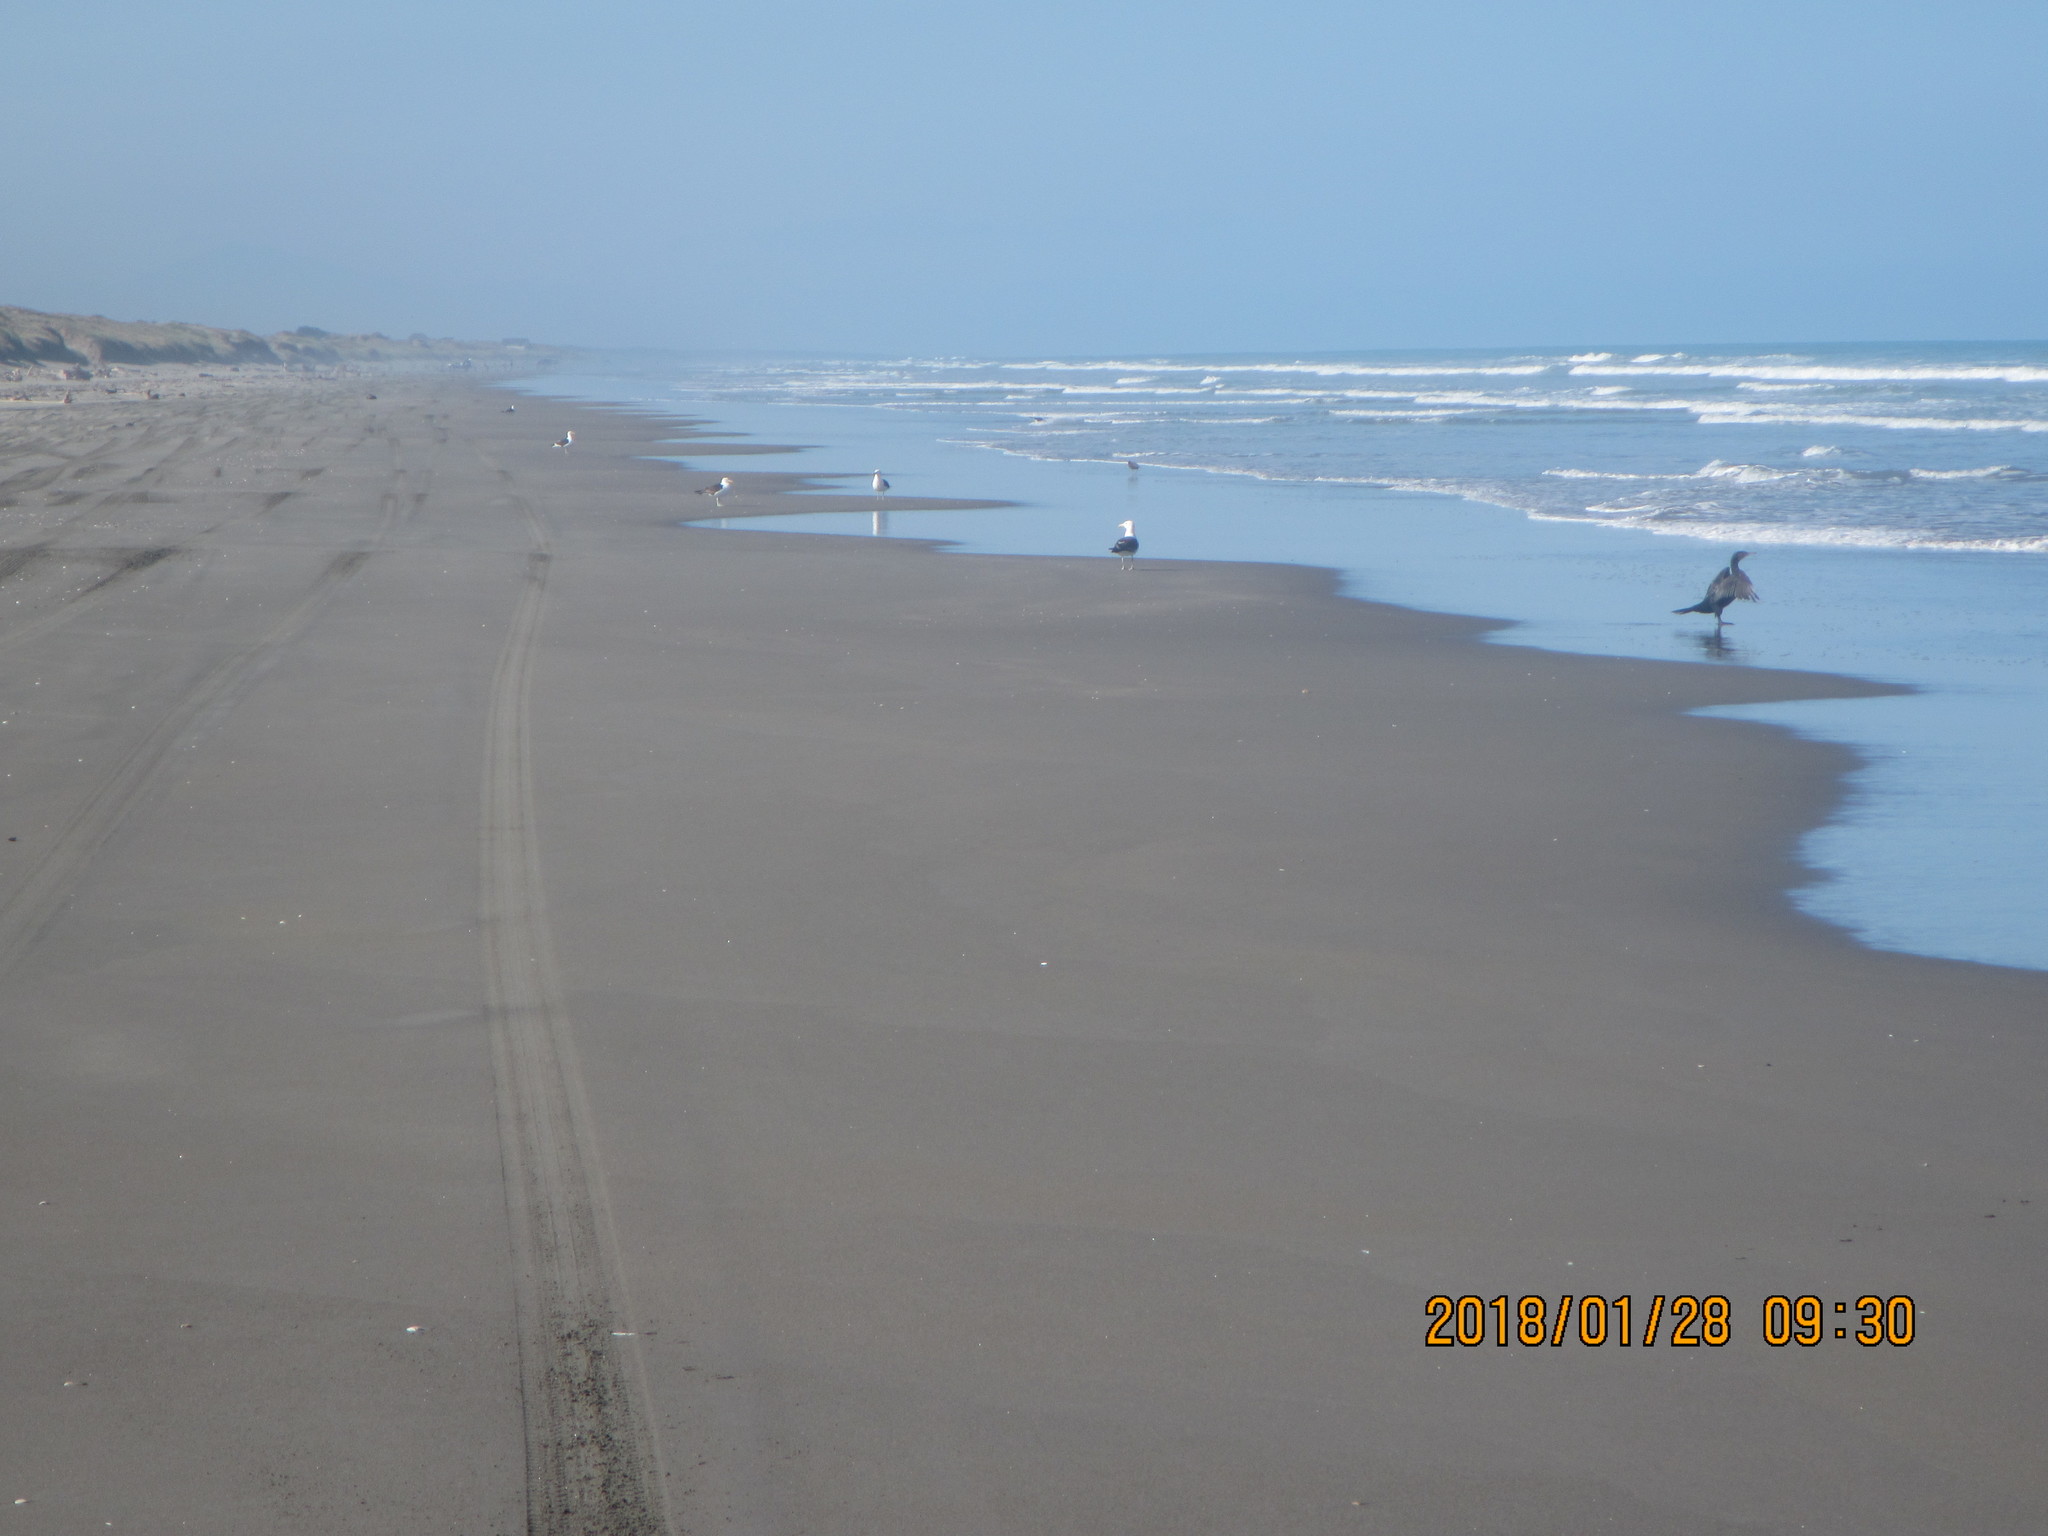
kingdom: Animalia
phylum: Chordata
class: Aves
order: Suliformes
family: Phalacrocoracidae
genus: Phalacrocorax
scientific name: Phalacrocorax carbo
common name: Great cormorant
